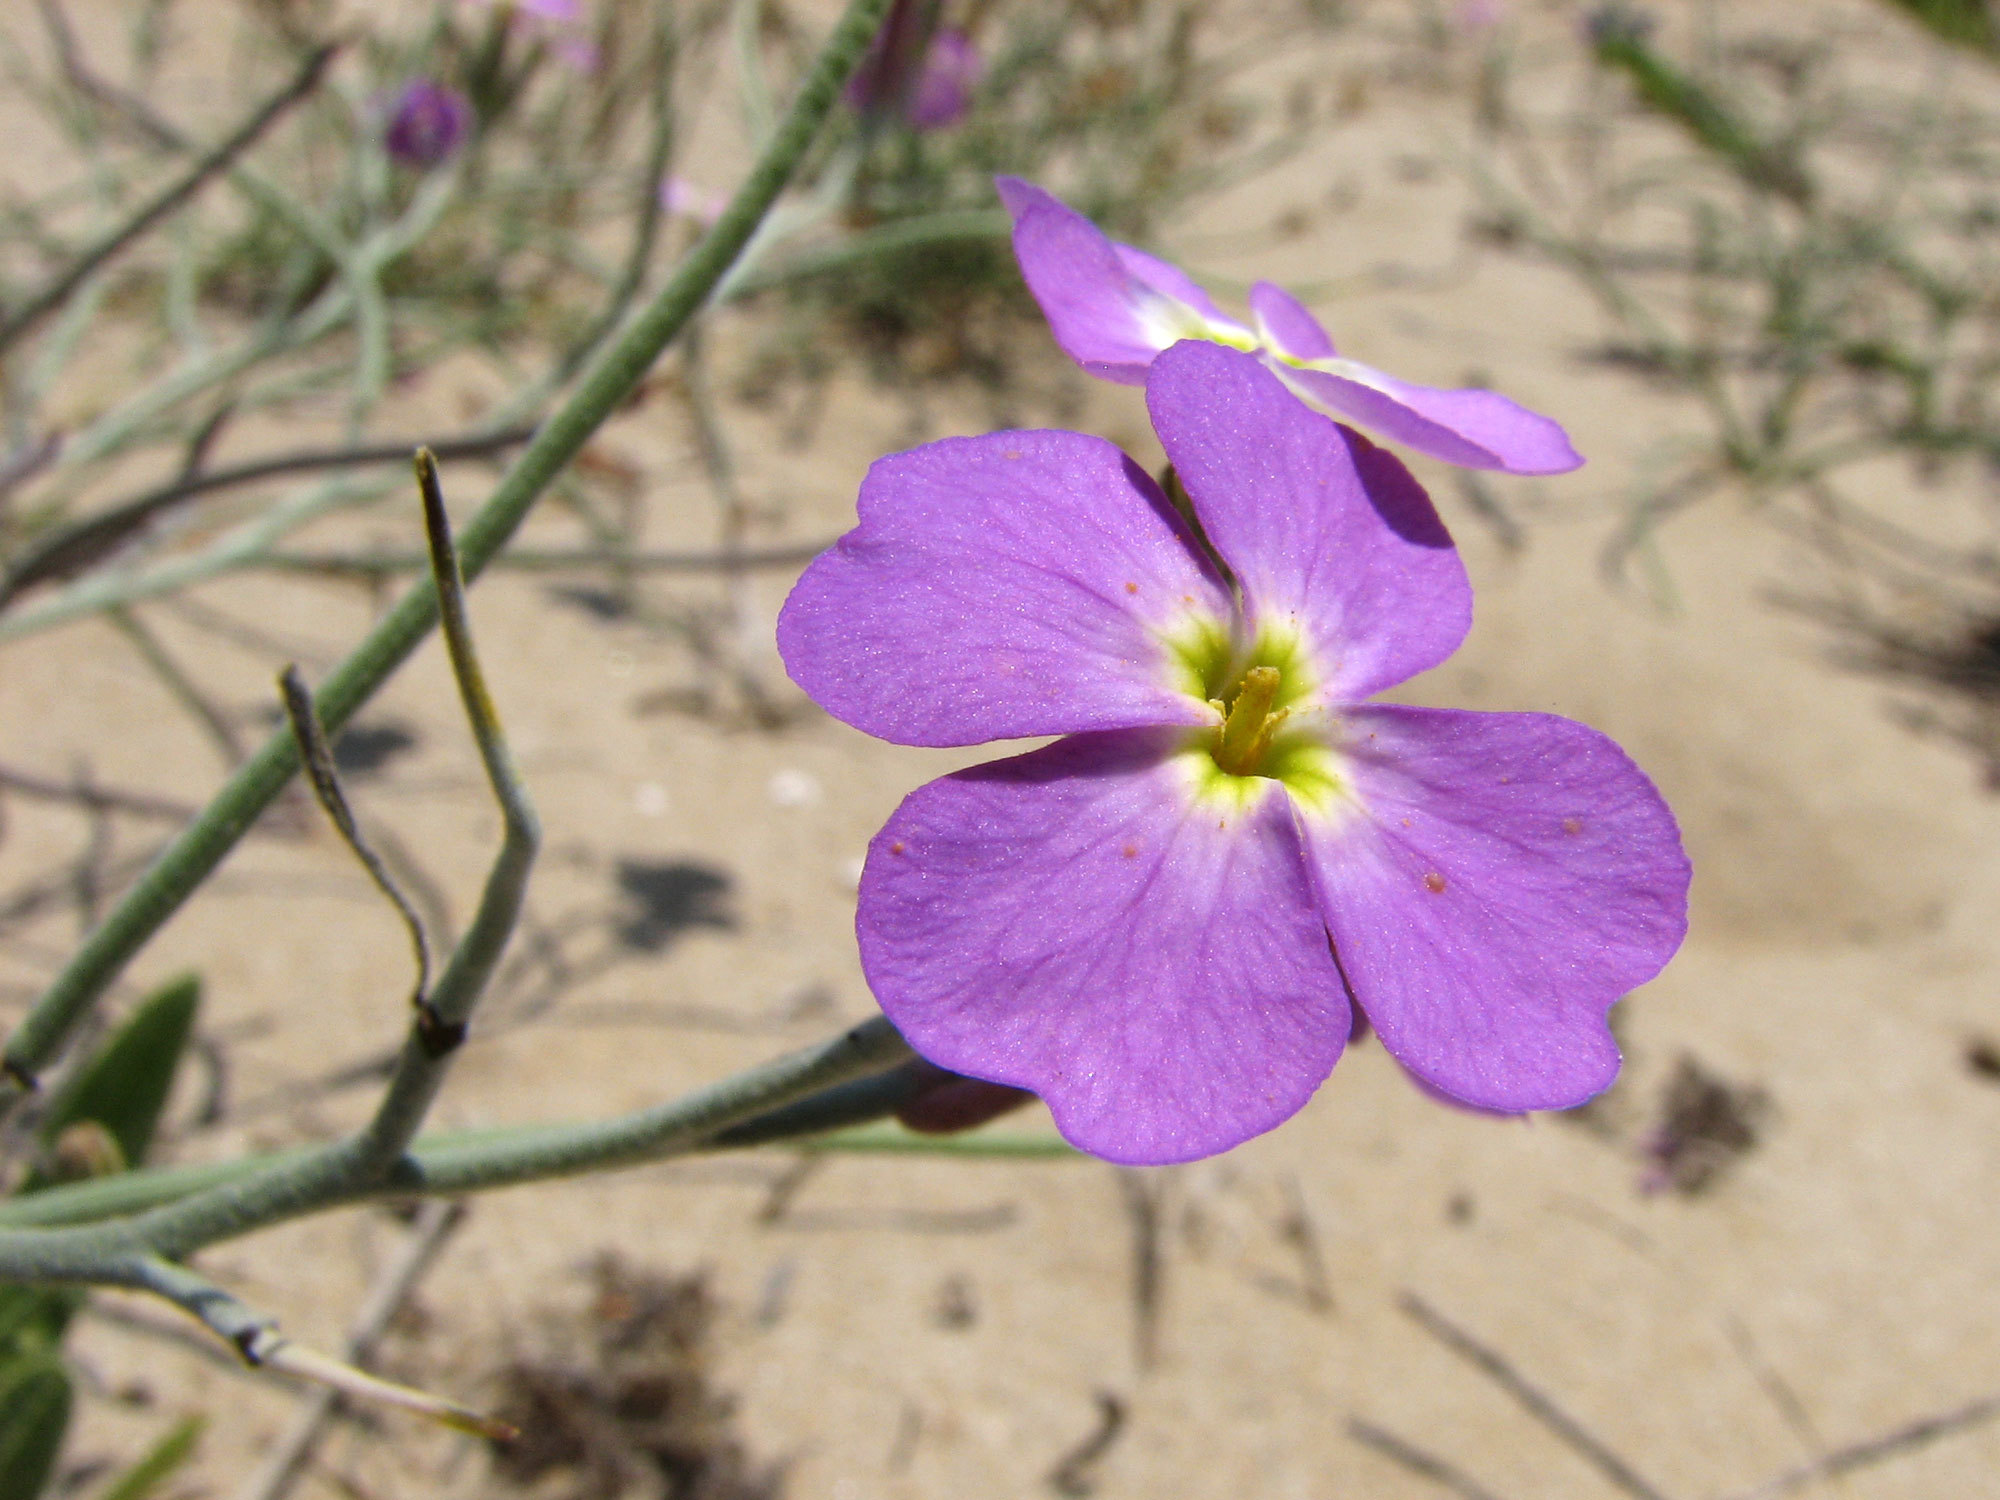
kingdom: Plantae
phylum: Tracheophyta
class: Magnoliopsida
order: Brassicales
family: Brassicaceae
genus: Marcuskochia
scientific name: Marcuskochia littorea
